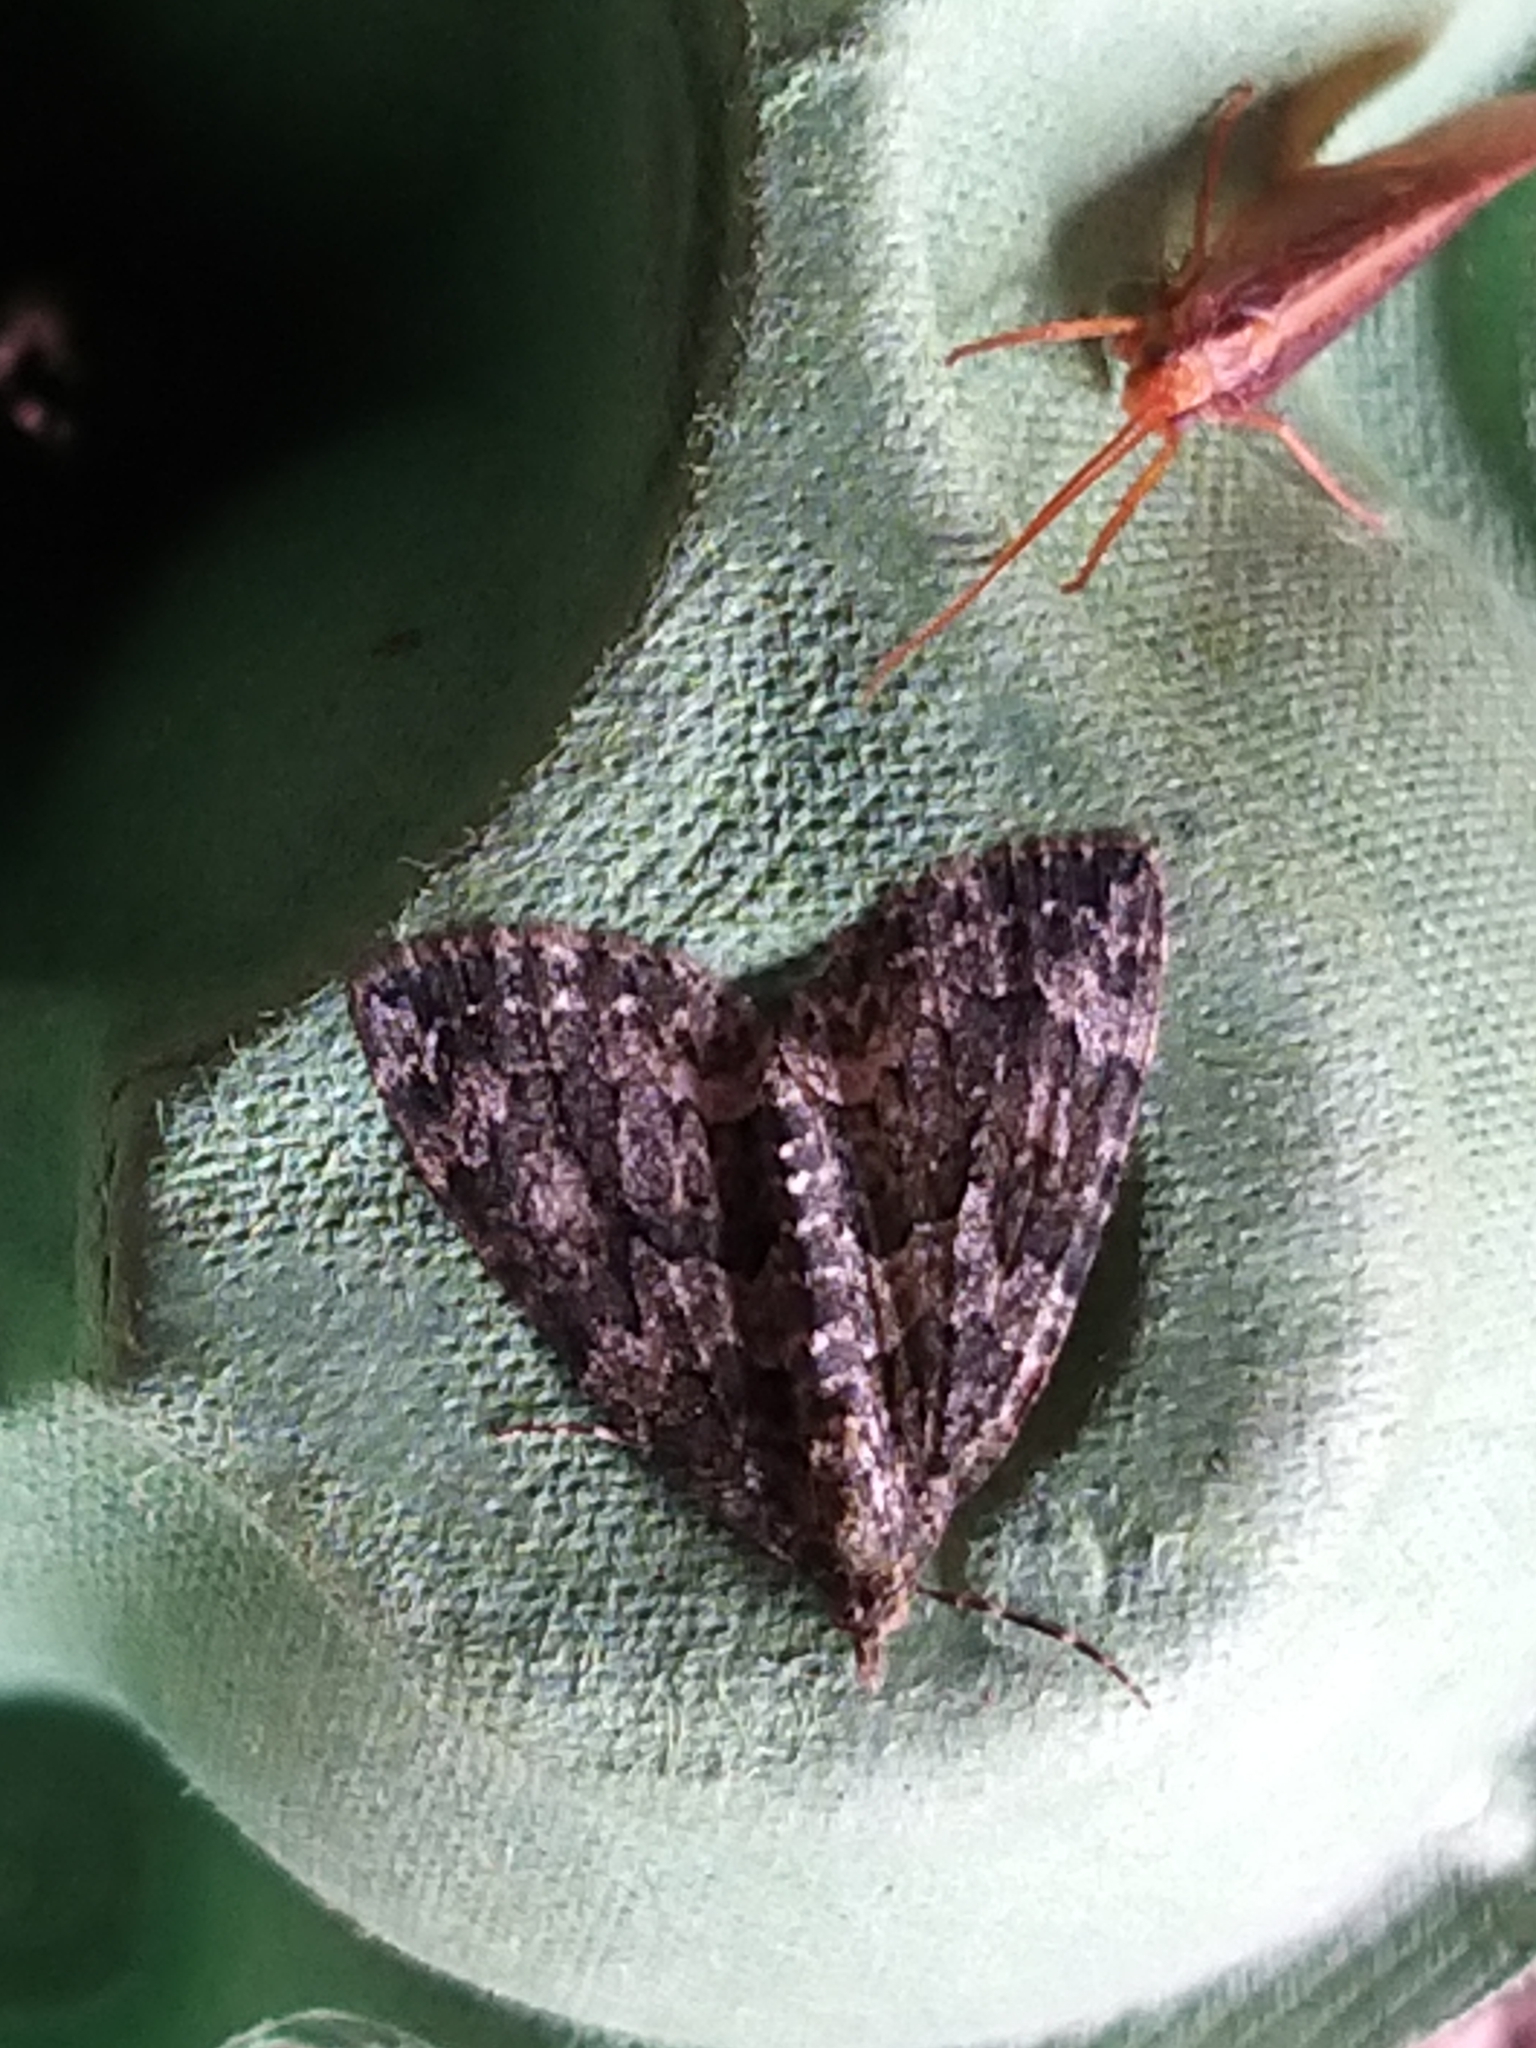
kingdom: Animalia
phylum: Arthropoda
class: Insecta
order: Lepidoptera
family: Geometridae
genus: Chloroclysta
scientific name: Chloroclysta siterata
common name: Red-green carpet
